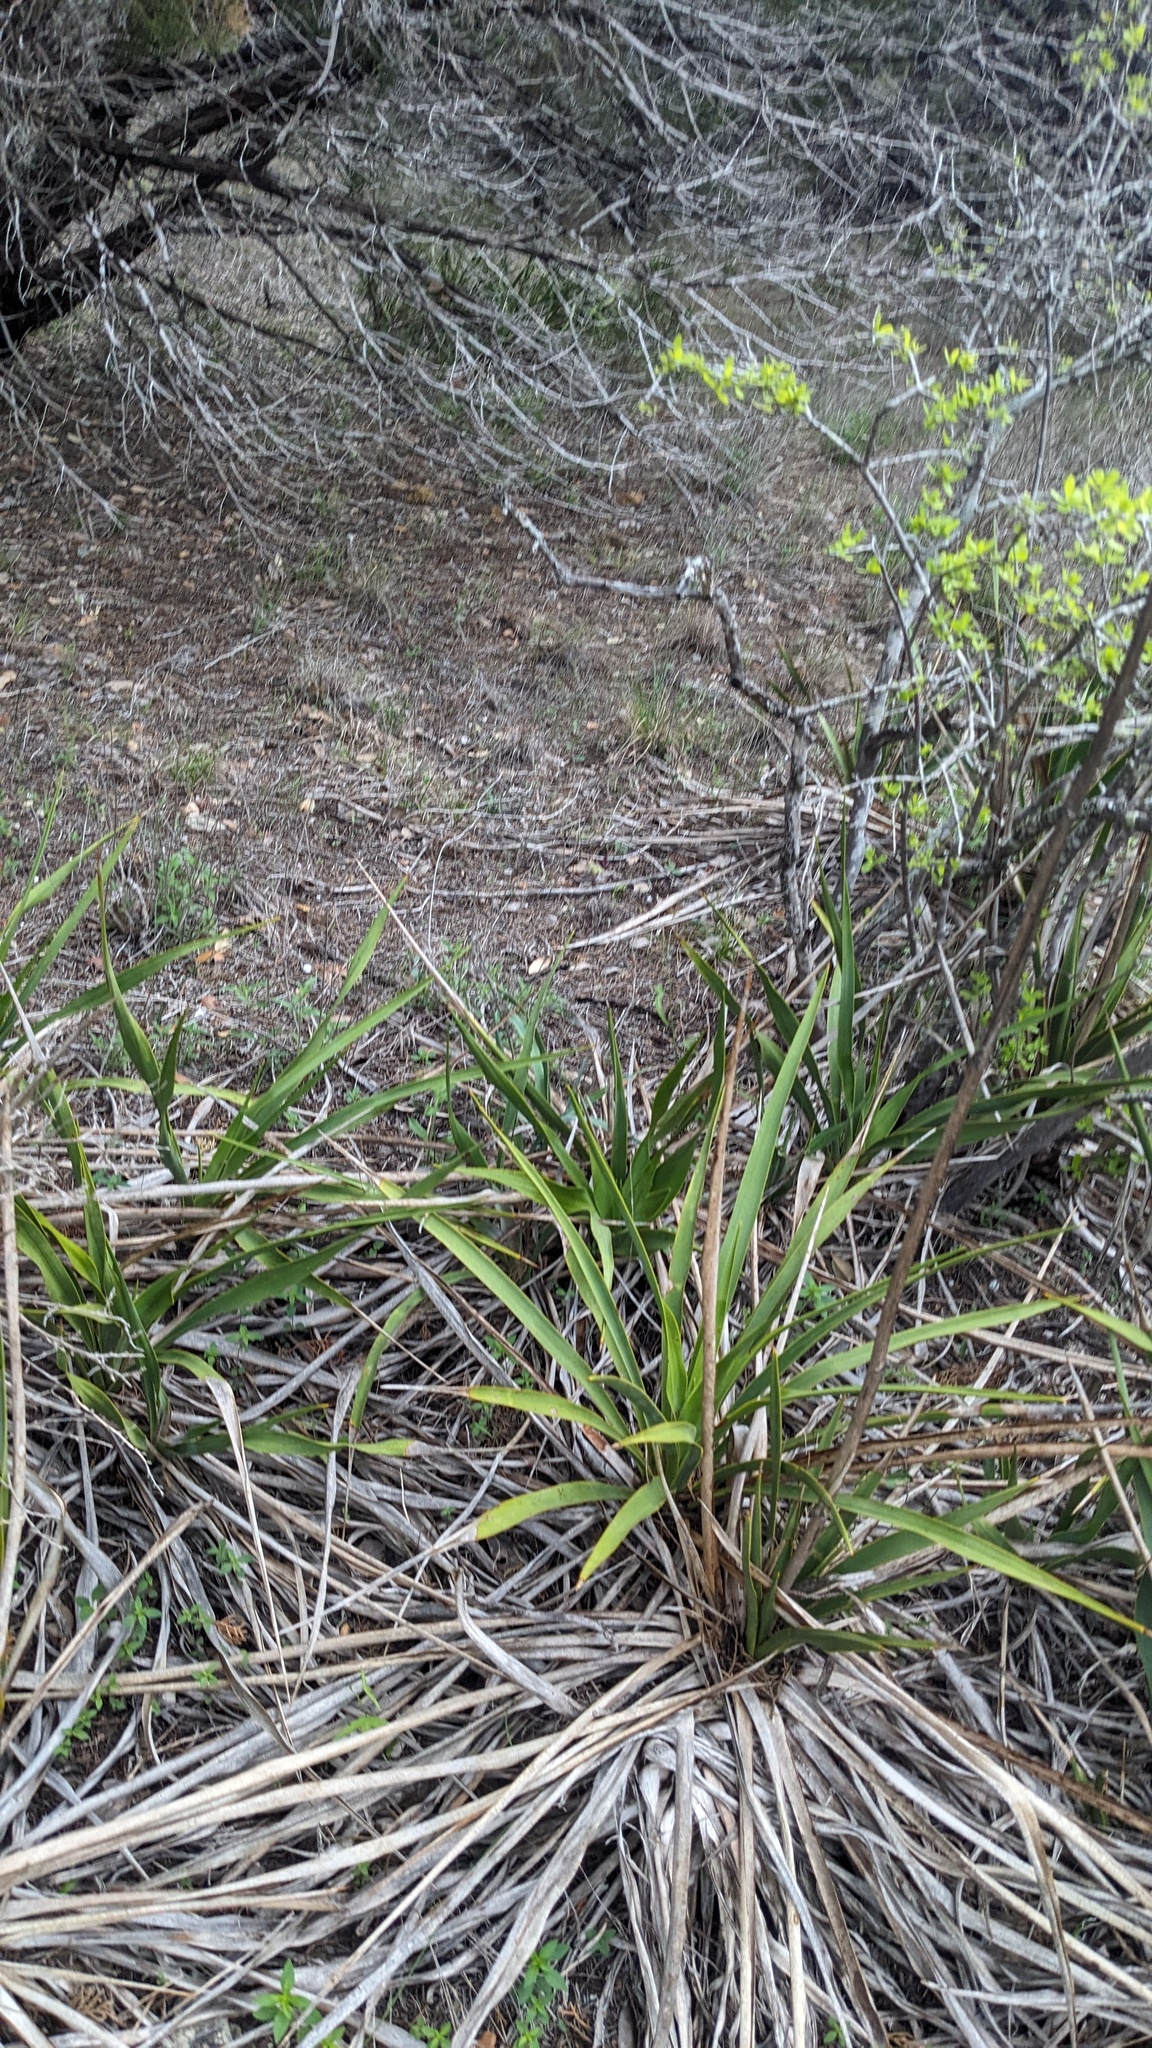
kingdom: Plantae
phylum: Tracheophyta
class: Liliopsida
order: Asparagales
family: Asparagaceae
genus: Yucca
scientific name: Yucca rupicola
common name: Twisted-leaf spanish-dagger
